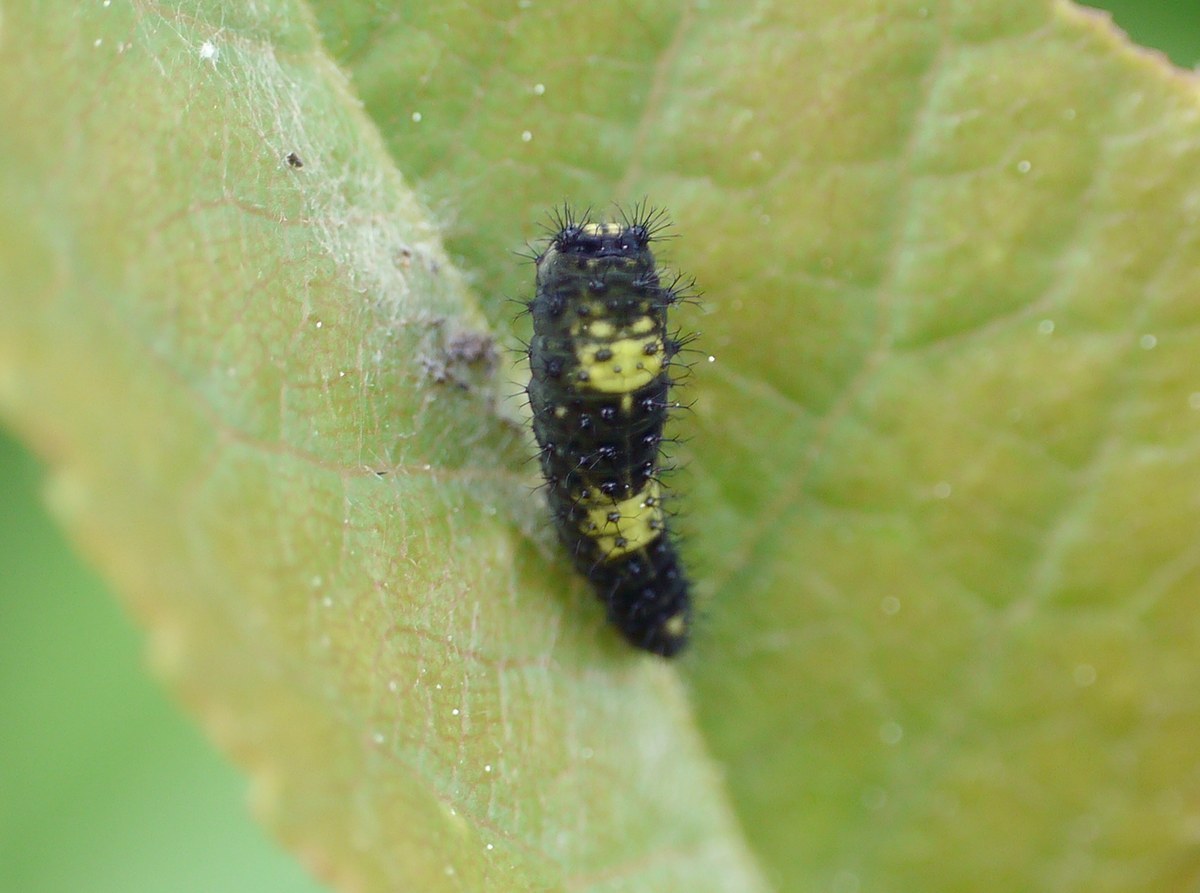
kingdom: Animalia
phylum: Arthropoda
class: Insecta
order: Lepidoptera
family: Papilionidae
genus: Iphiclides
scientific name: Iphiclides podalirius
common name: Scarce swallowtail
